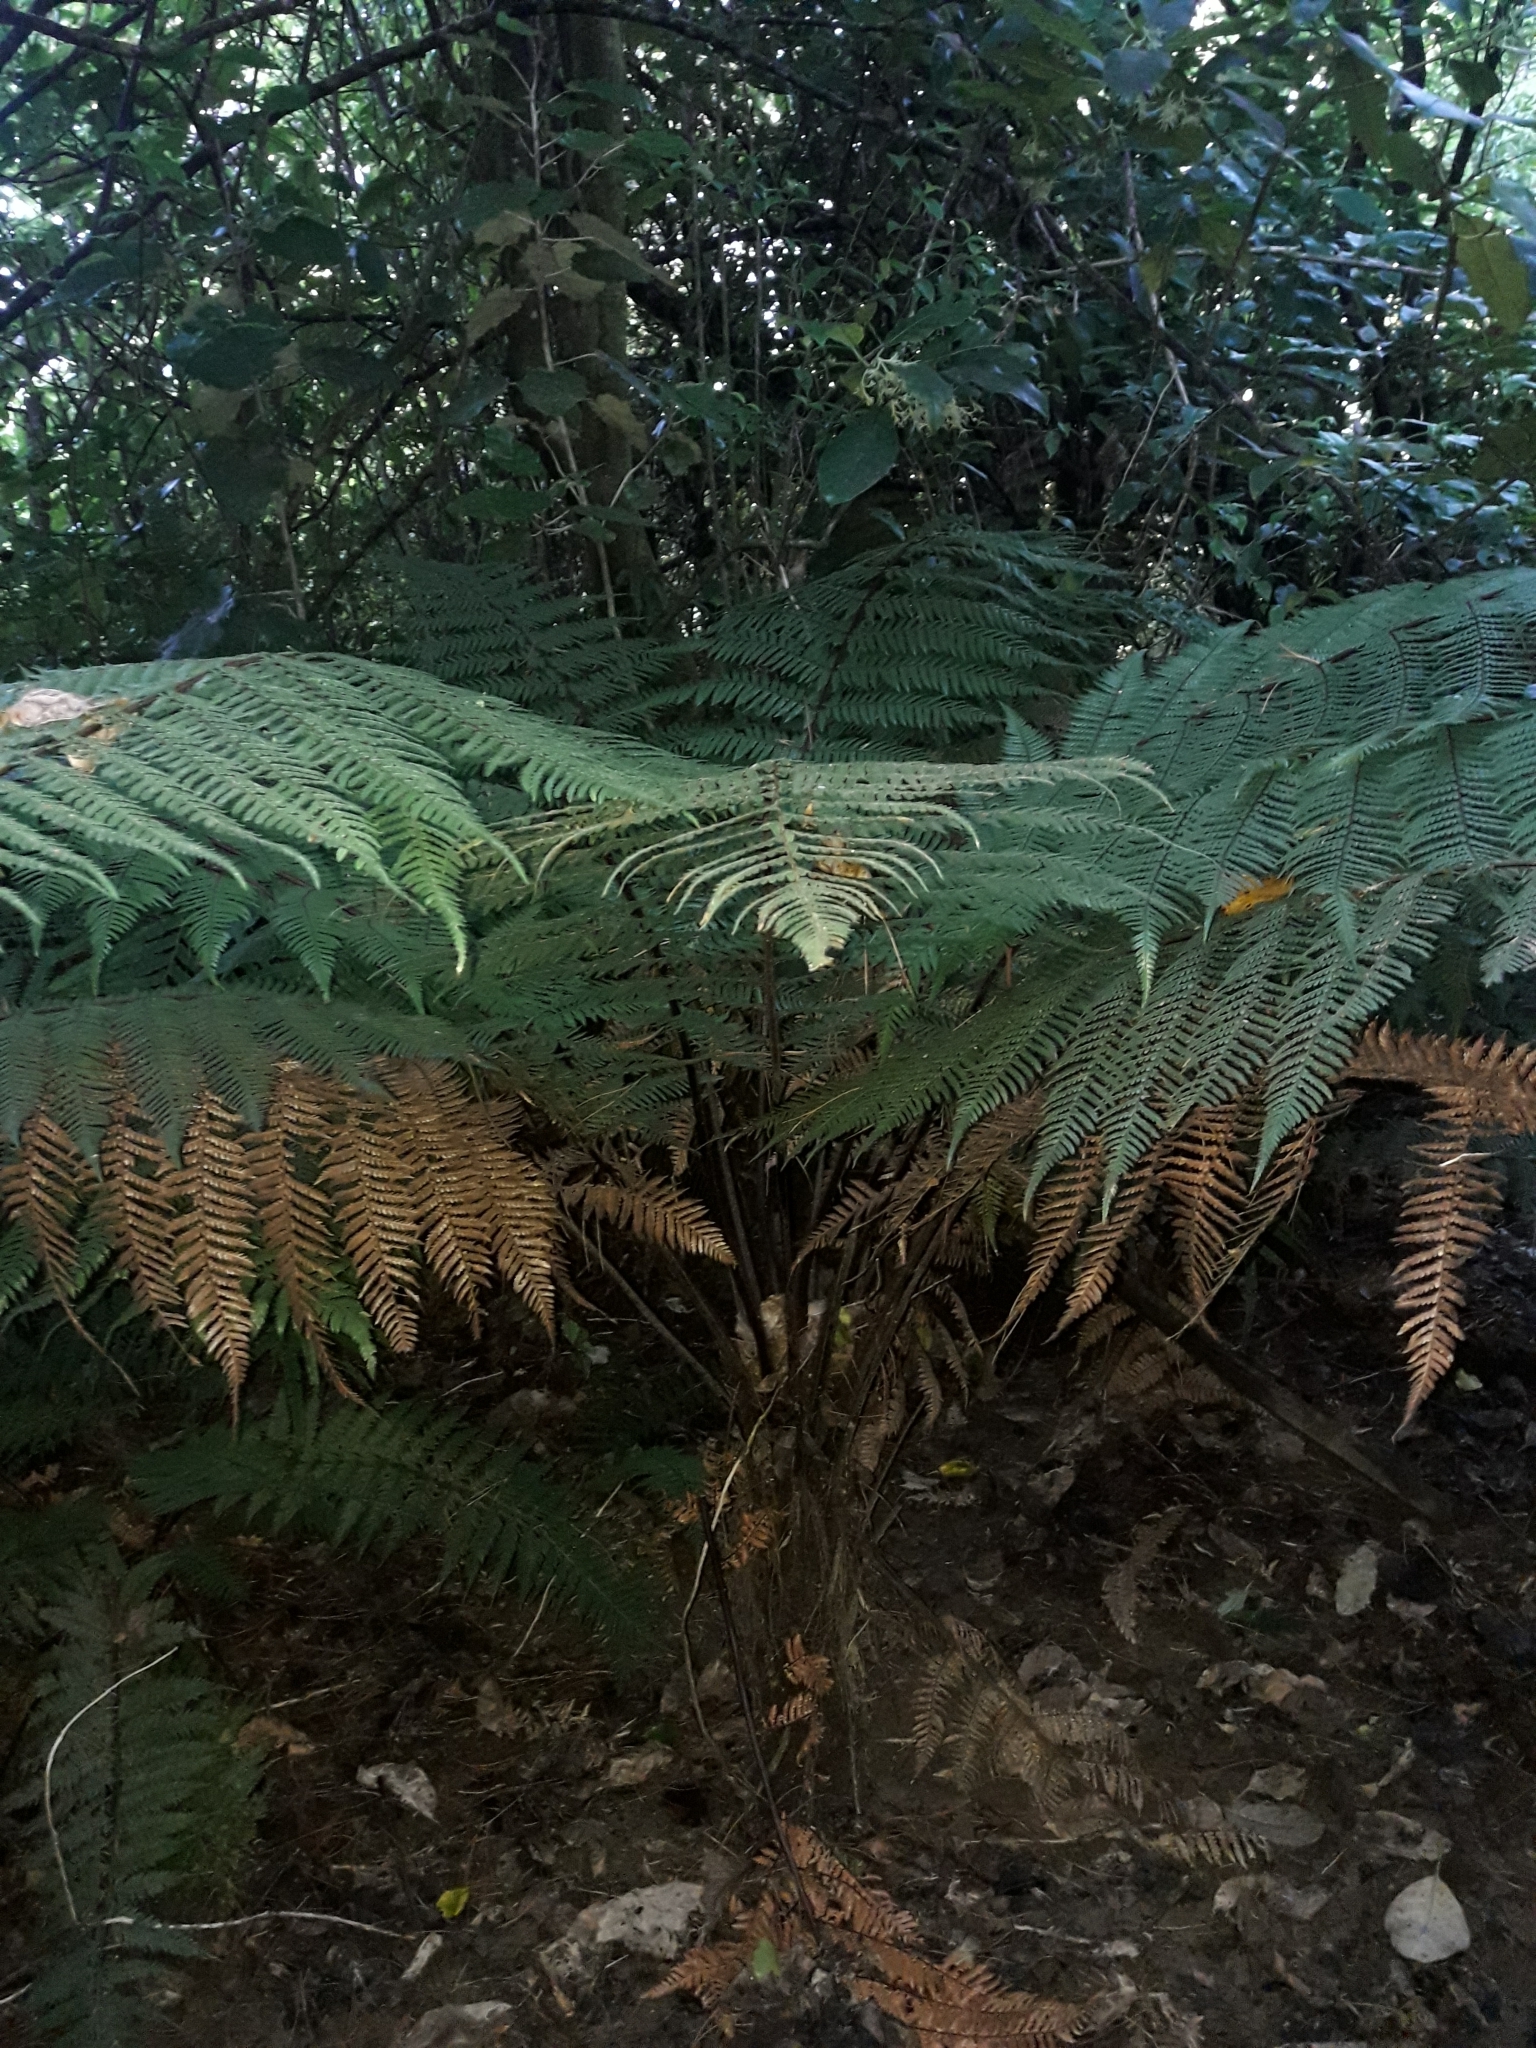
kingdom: Plantae
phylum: Tracheophyta
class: Polypodiopsida
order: Cyatheales
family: Dicksoniaceae
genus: Dicksonia
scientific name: Dicksonia squarrosa
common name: Hard treefern
